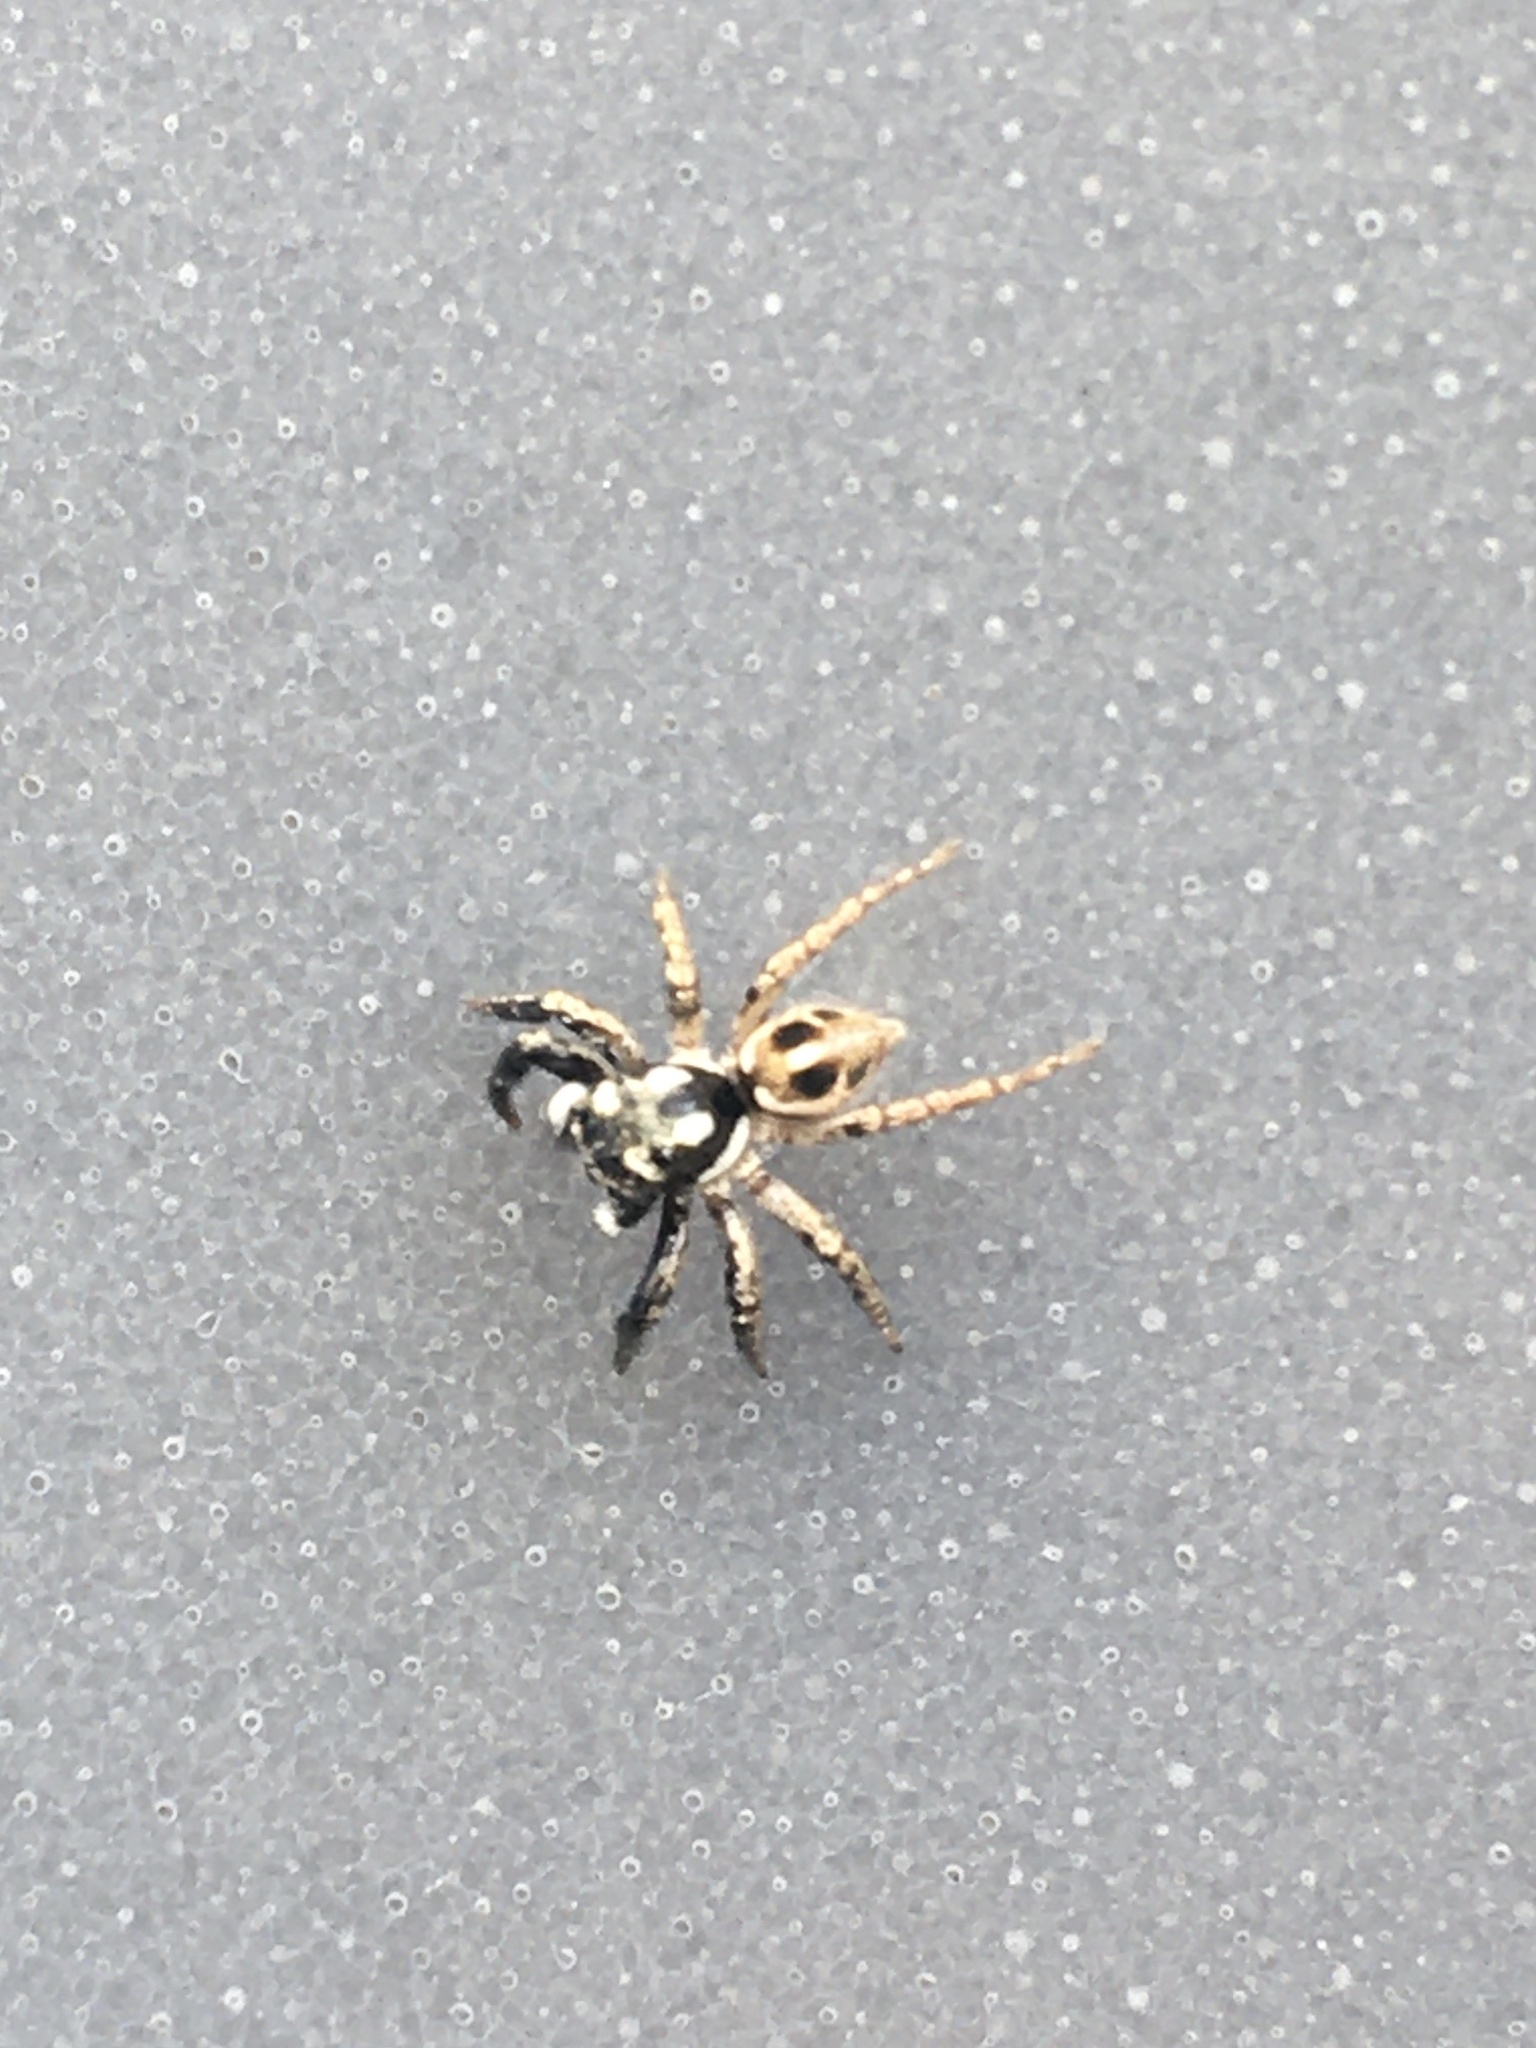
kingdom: Animalia
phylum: Arthropoda
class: Arachnida
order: Araneae
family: Salticidae
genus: Anasaitis
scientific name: Anasaitis canosa
